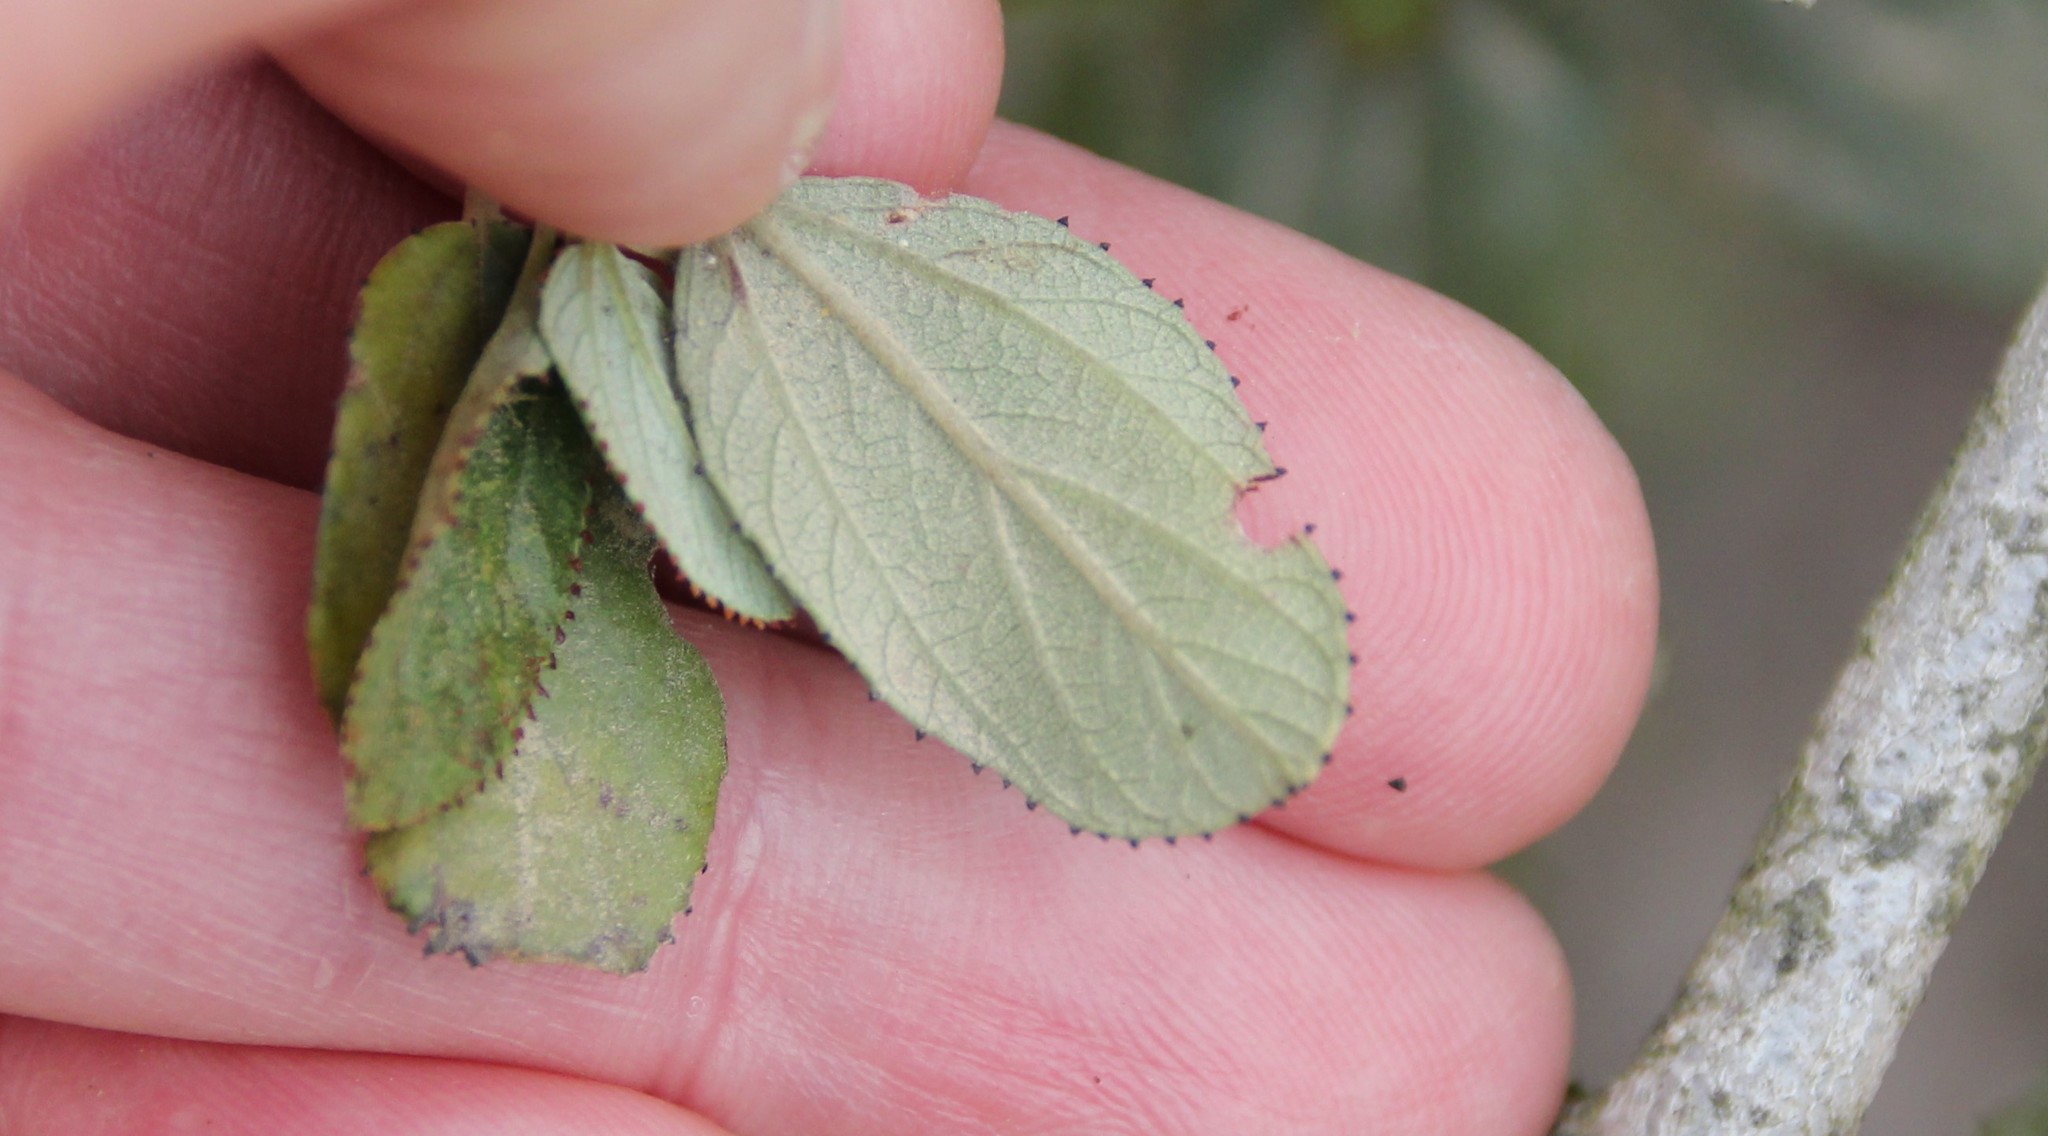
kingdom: Plantae
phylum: Tracheophyta
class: Magnoliopsida
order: Rosales
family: Rhamnaceae
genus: Ceanothus
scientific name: Ceanothus tomentosus
